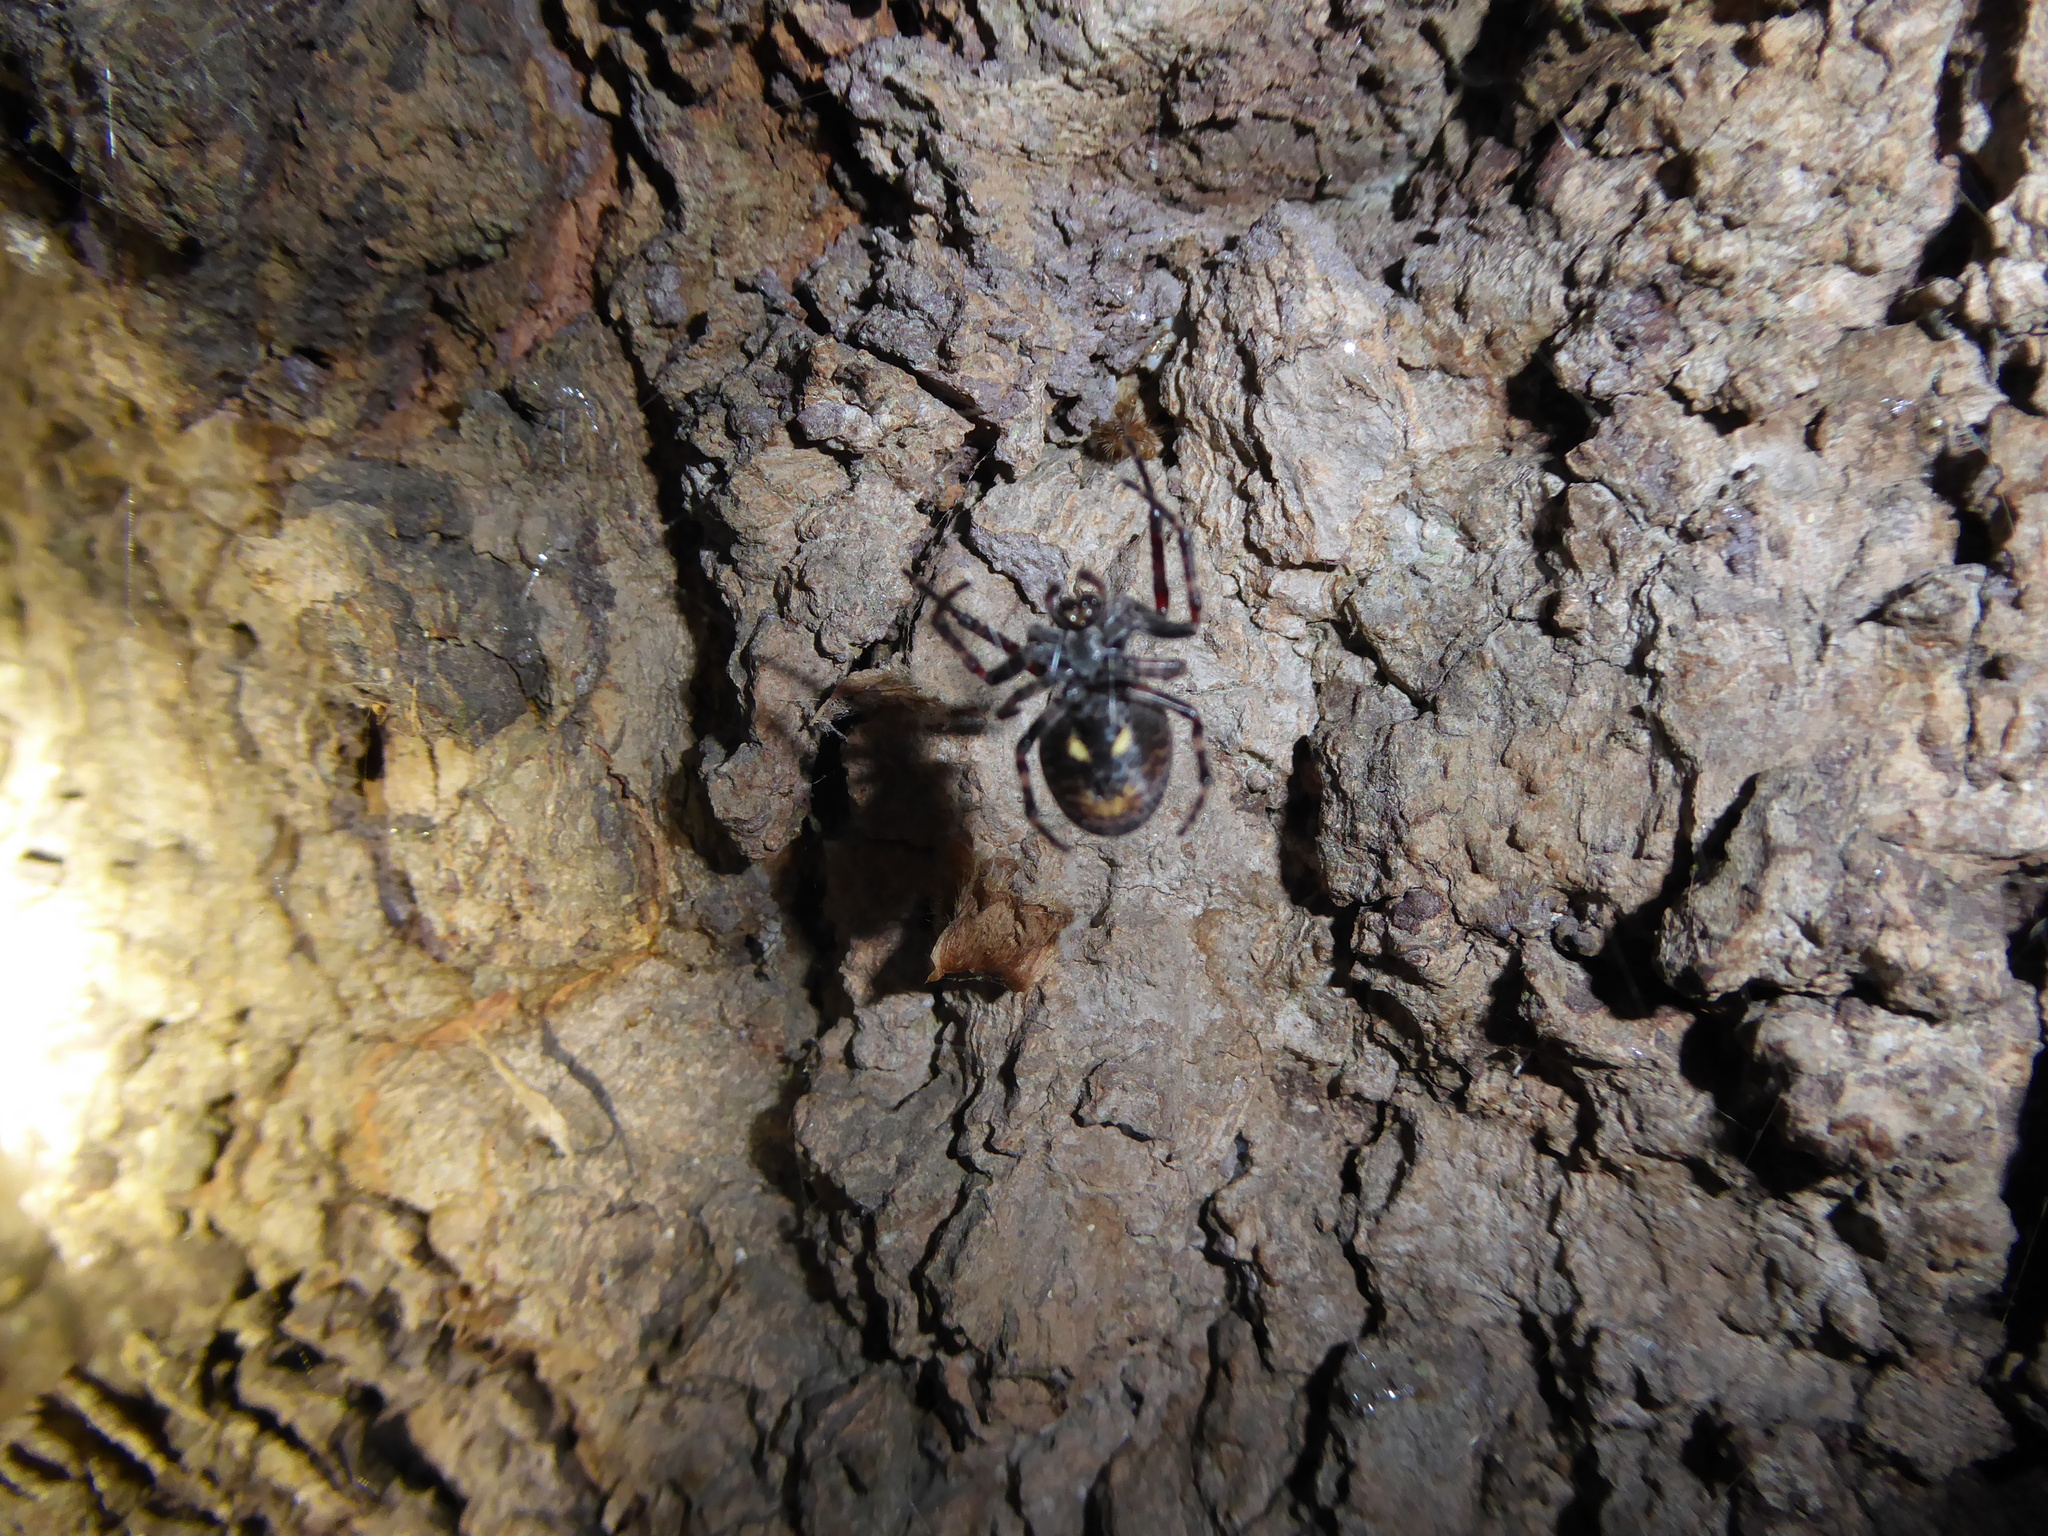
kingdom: Animalia
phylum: Arthropoda
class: Arachnida
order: Araneae
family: Araneidae
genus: Nuctenea
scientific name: Nuctenea umbratica
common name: Toad spider
